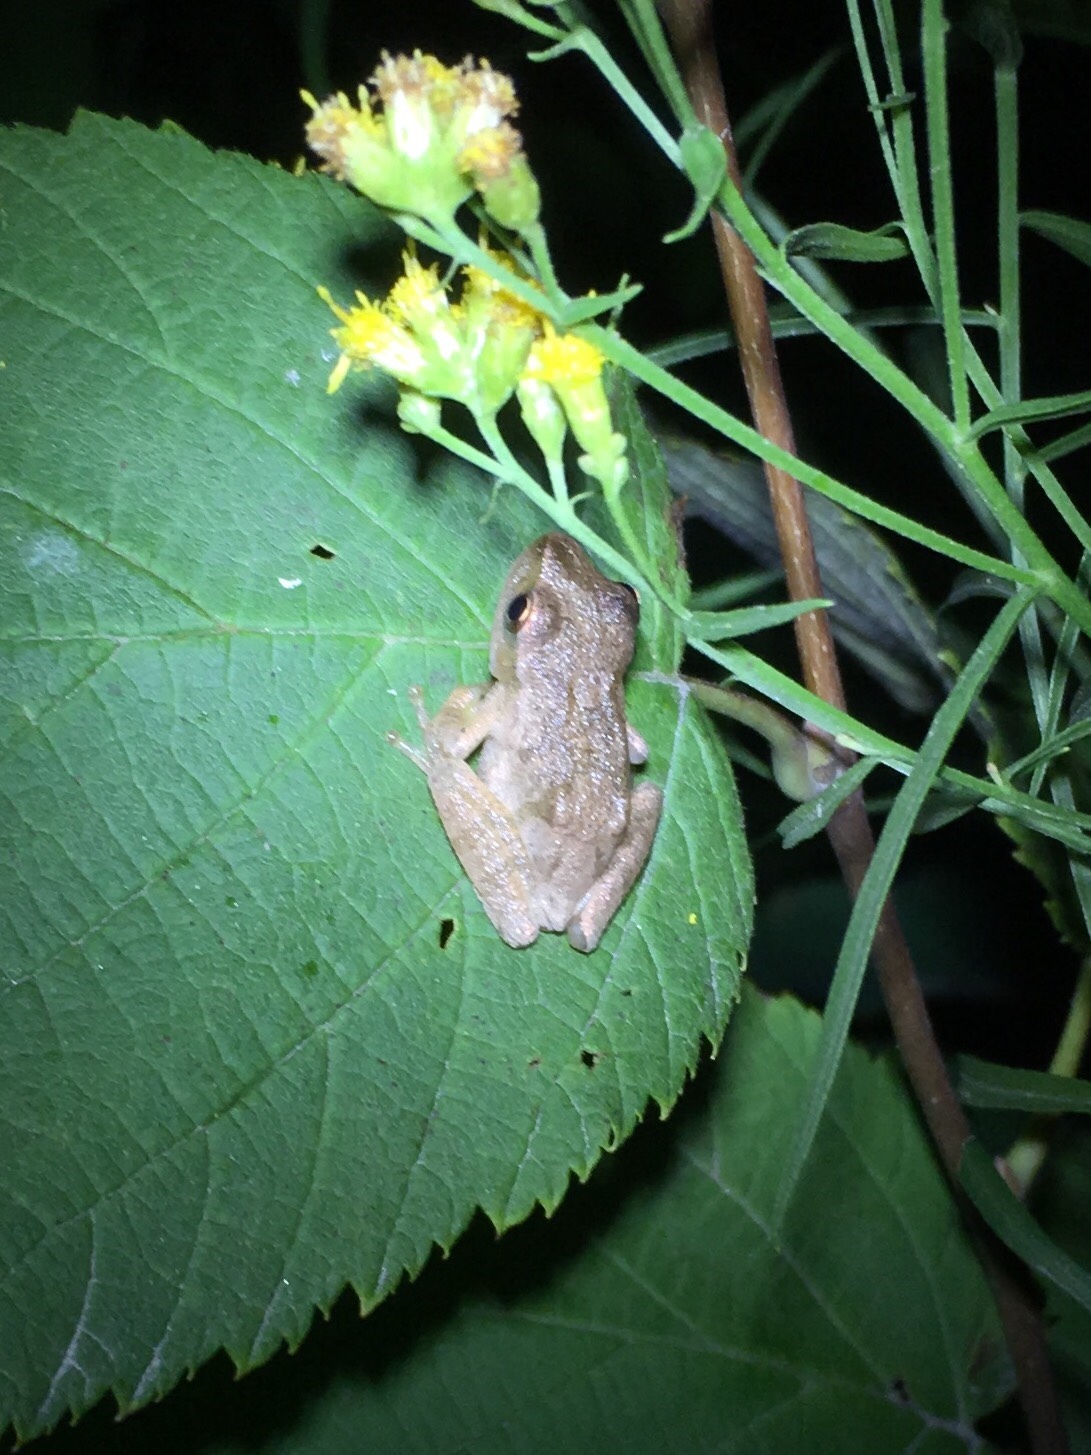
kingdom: Animalia
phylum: Chordata
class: Amphibia
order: Anura
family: Hylidae
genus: Pseudacris
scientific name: Pseudacris crucifer
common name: Spring peeper
